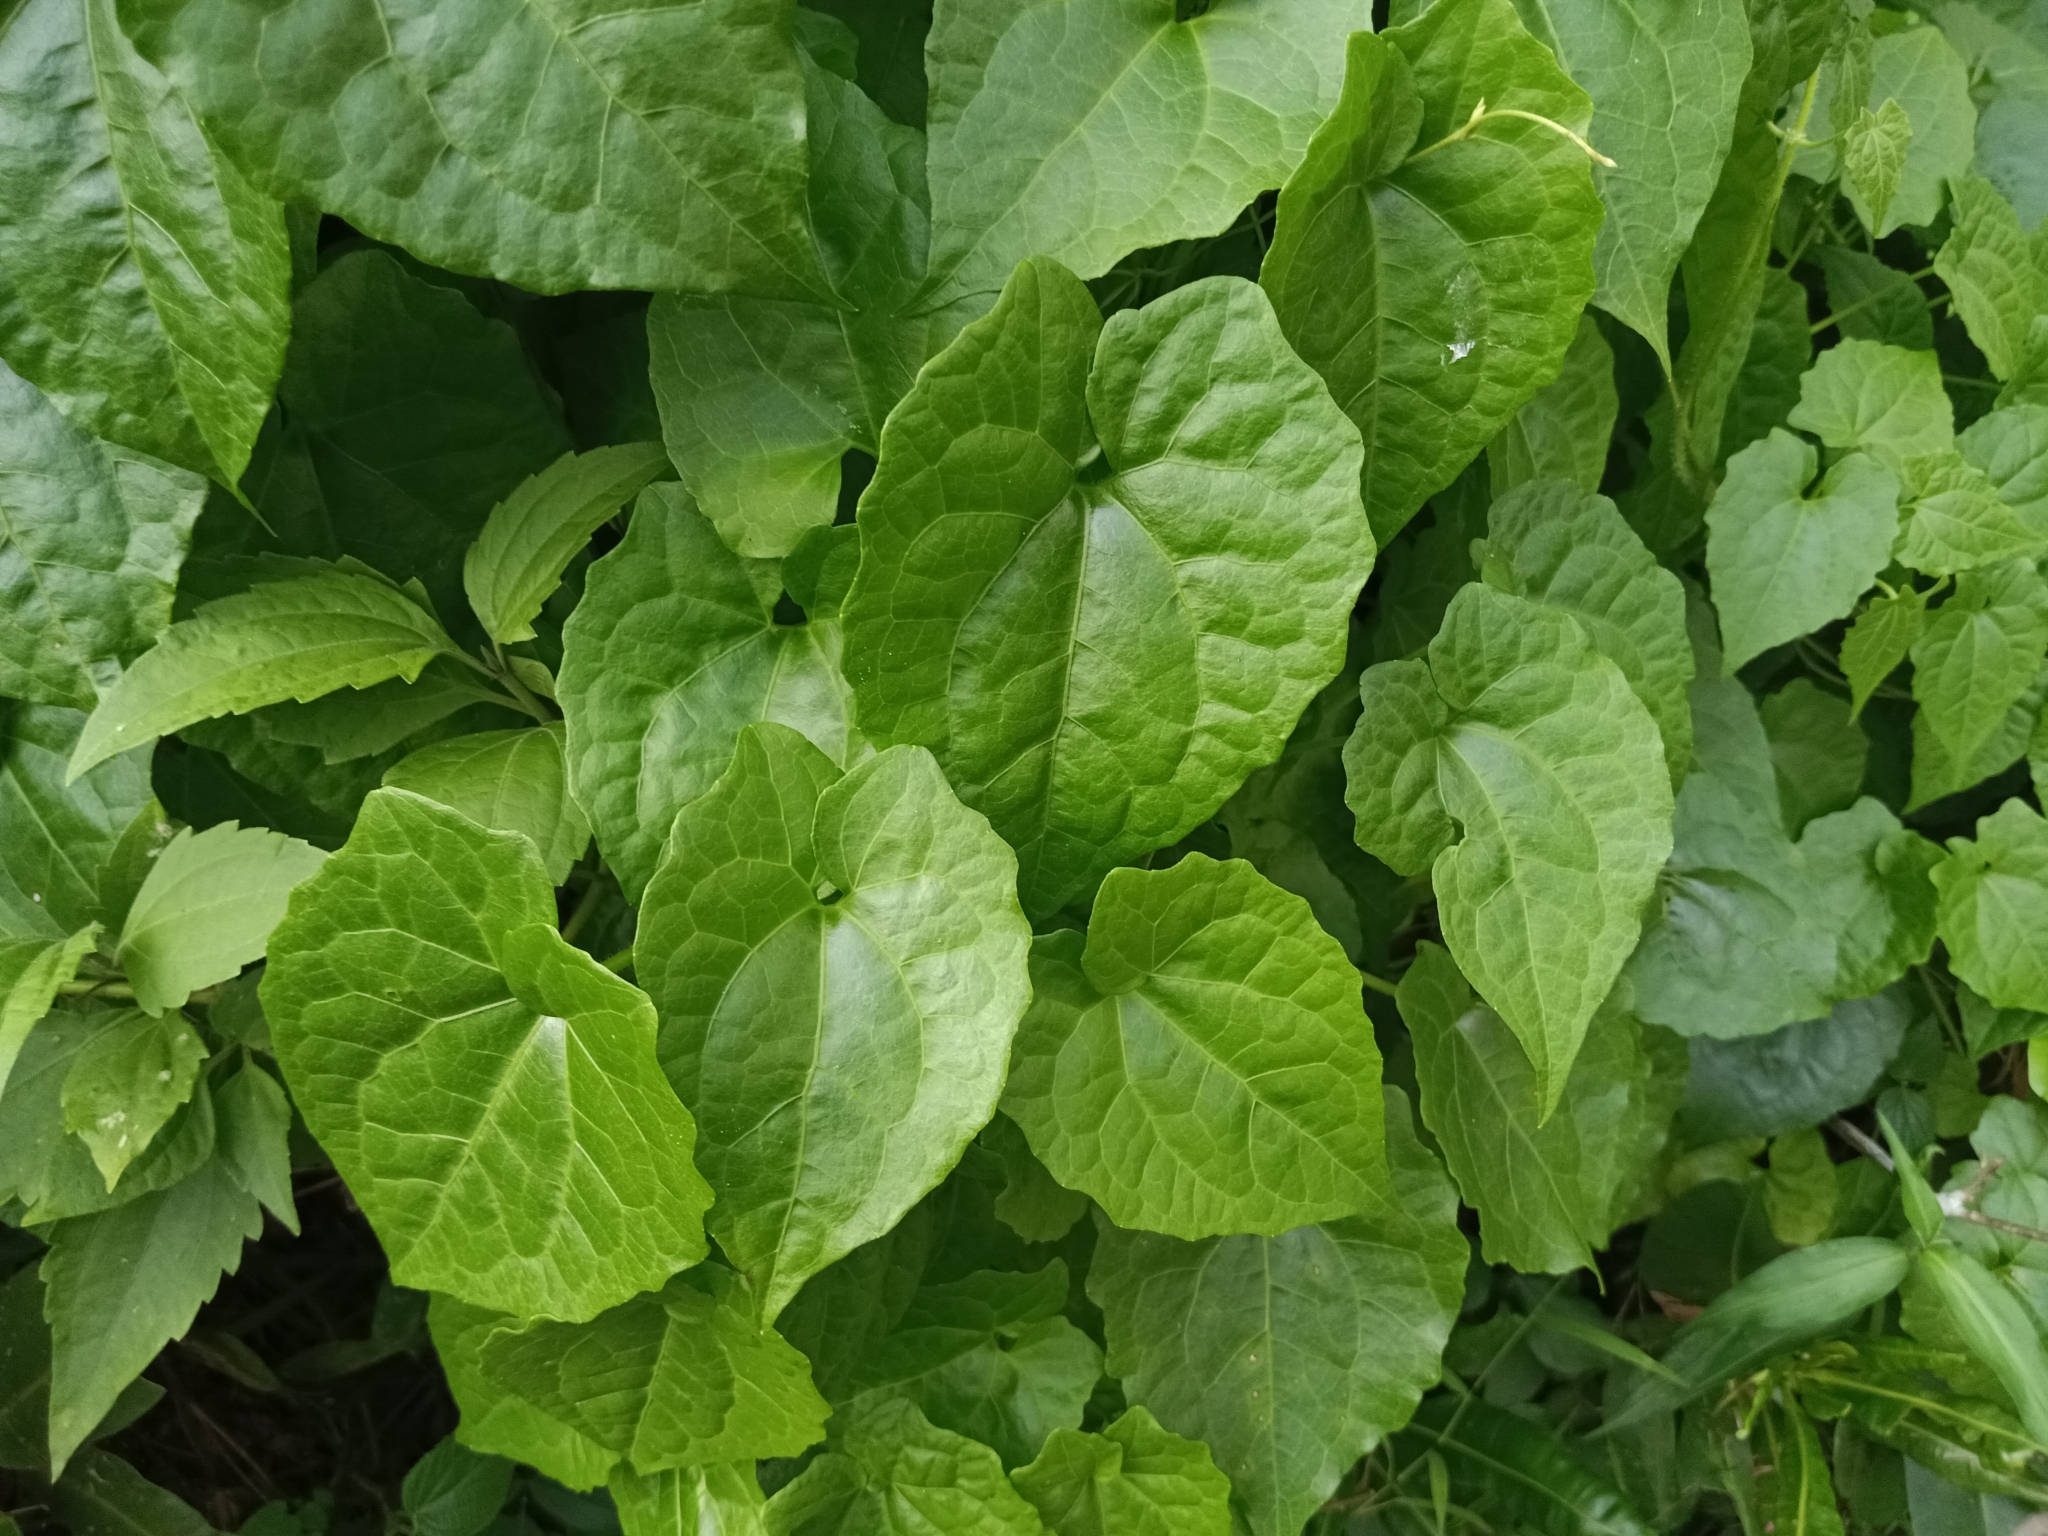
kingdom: Plantae
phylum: Tracheophyta
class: Magnoliopsida
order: Asterales
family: Asteraceae
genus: Mikania
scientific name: Mikania micrantha
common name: Mile-a-minute
